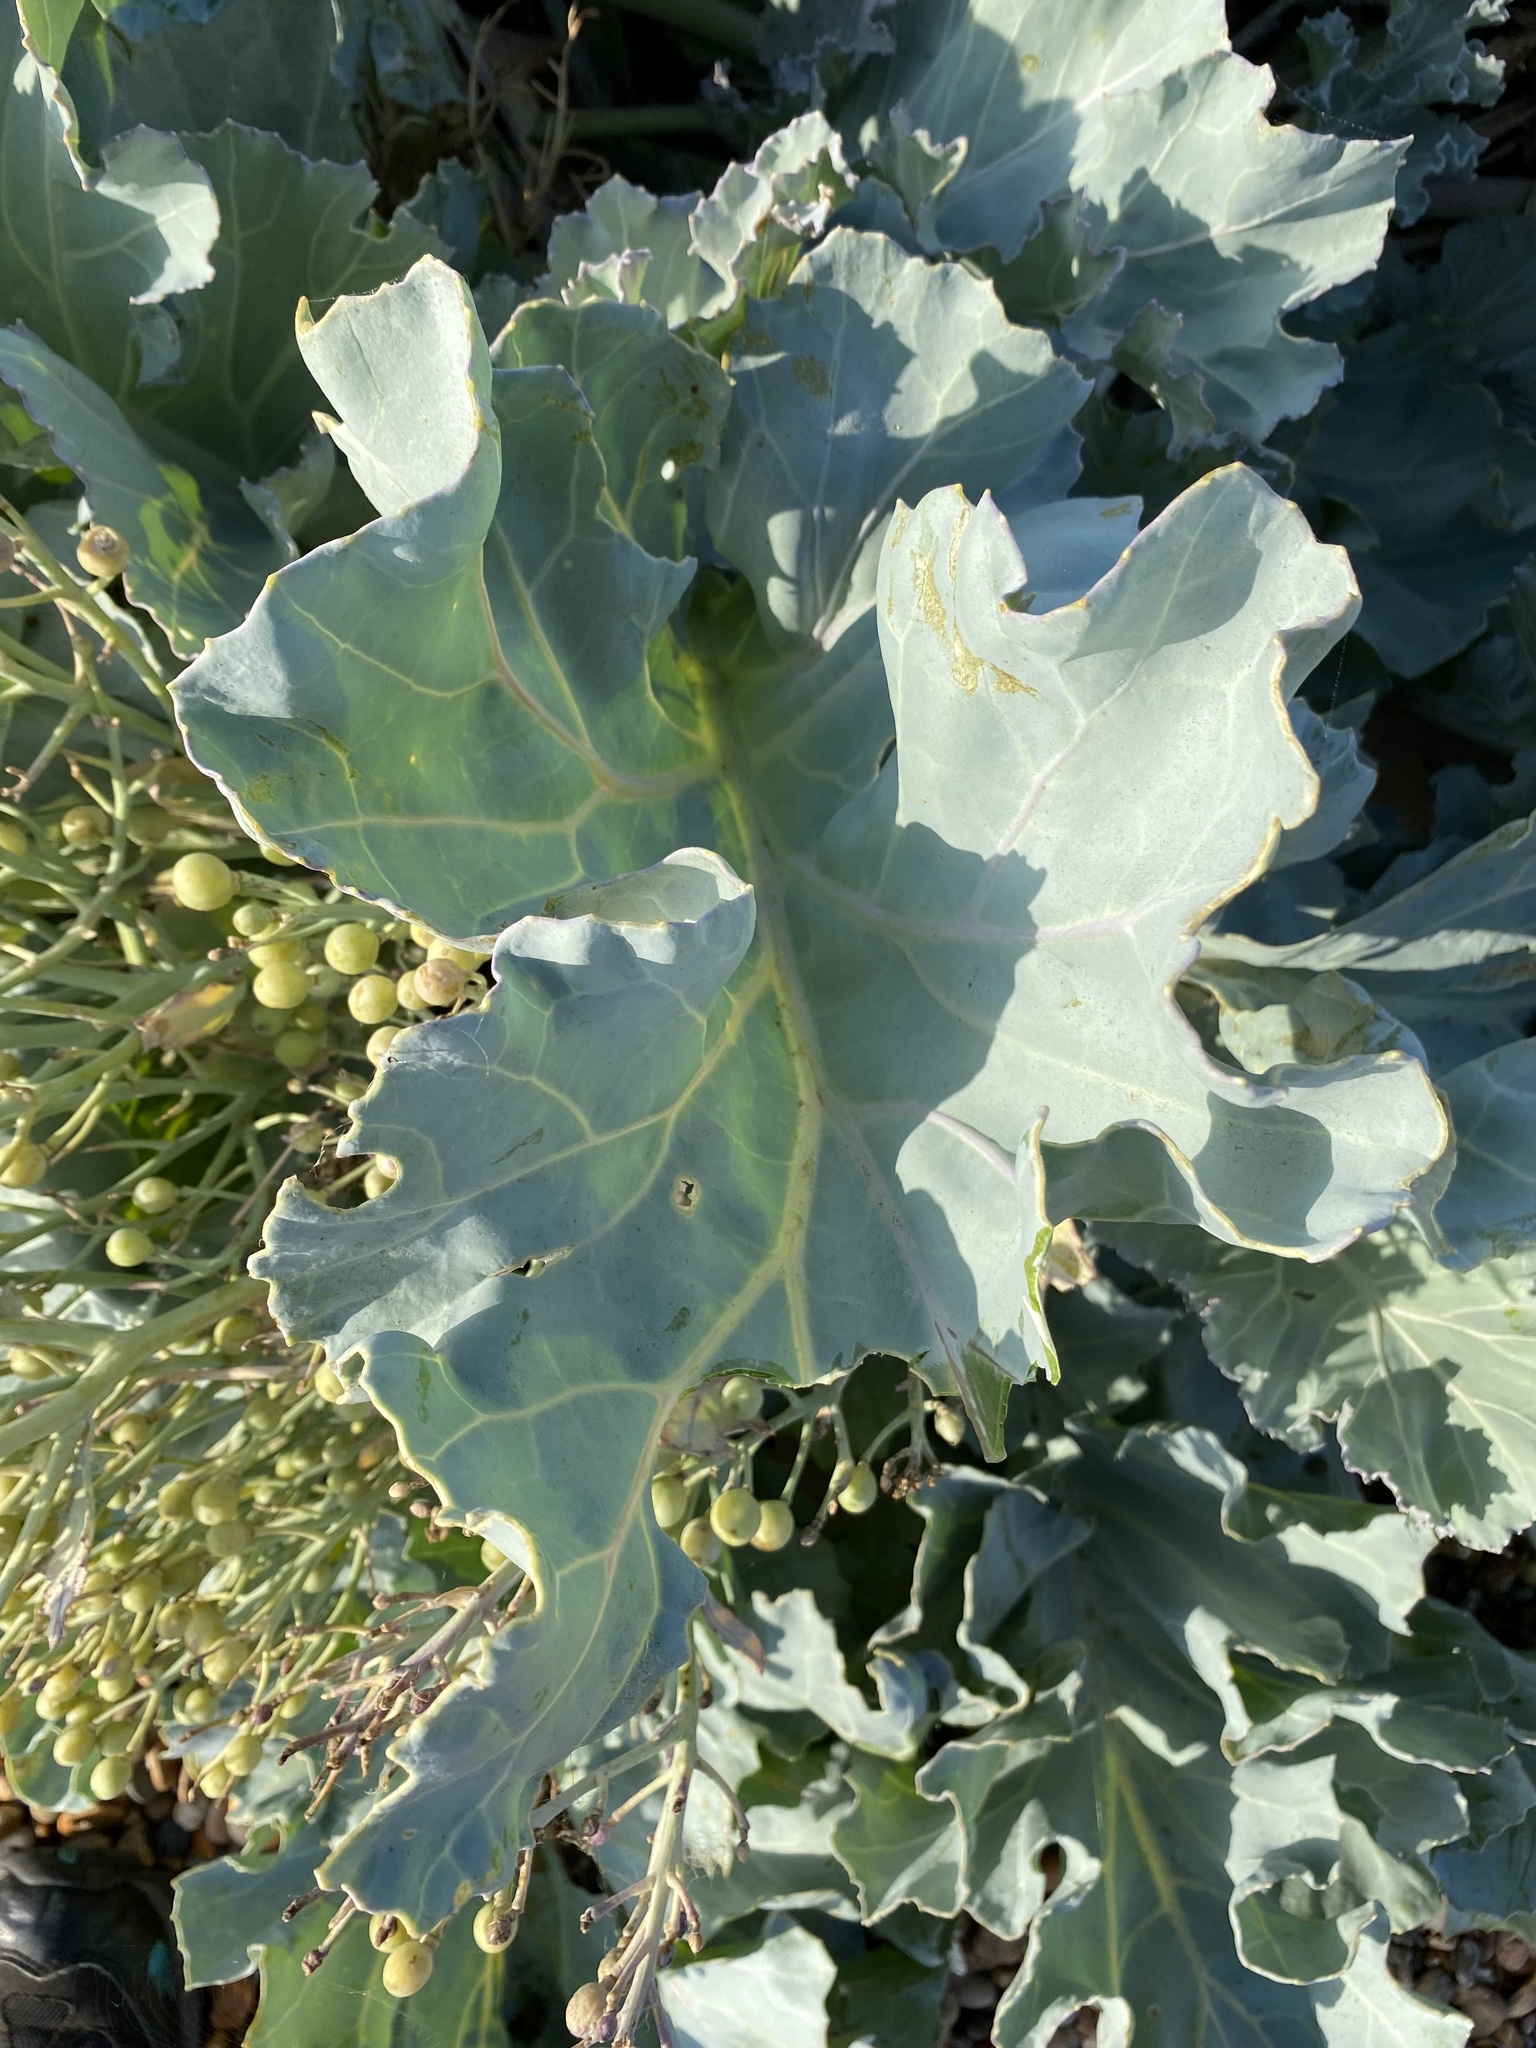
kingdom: Plantae
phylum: Tracheophyta
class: Magnoliopsida
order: Brassicales
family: Brassicaceae
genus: Crambe
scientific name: Crambe maritima
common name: Sea-kale
